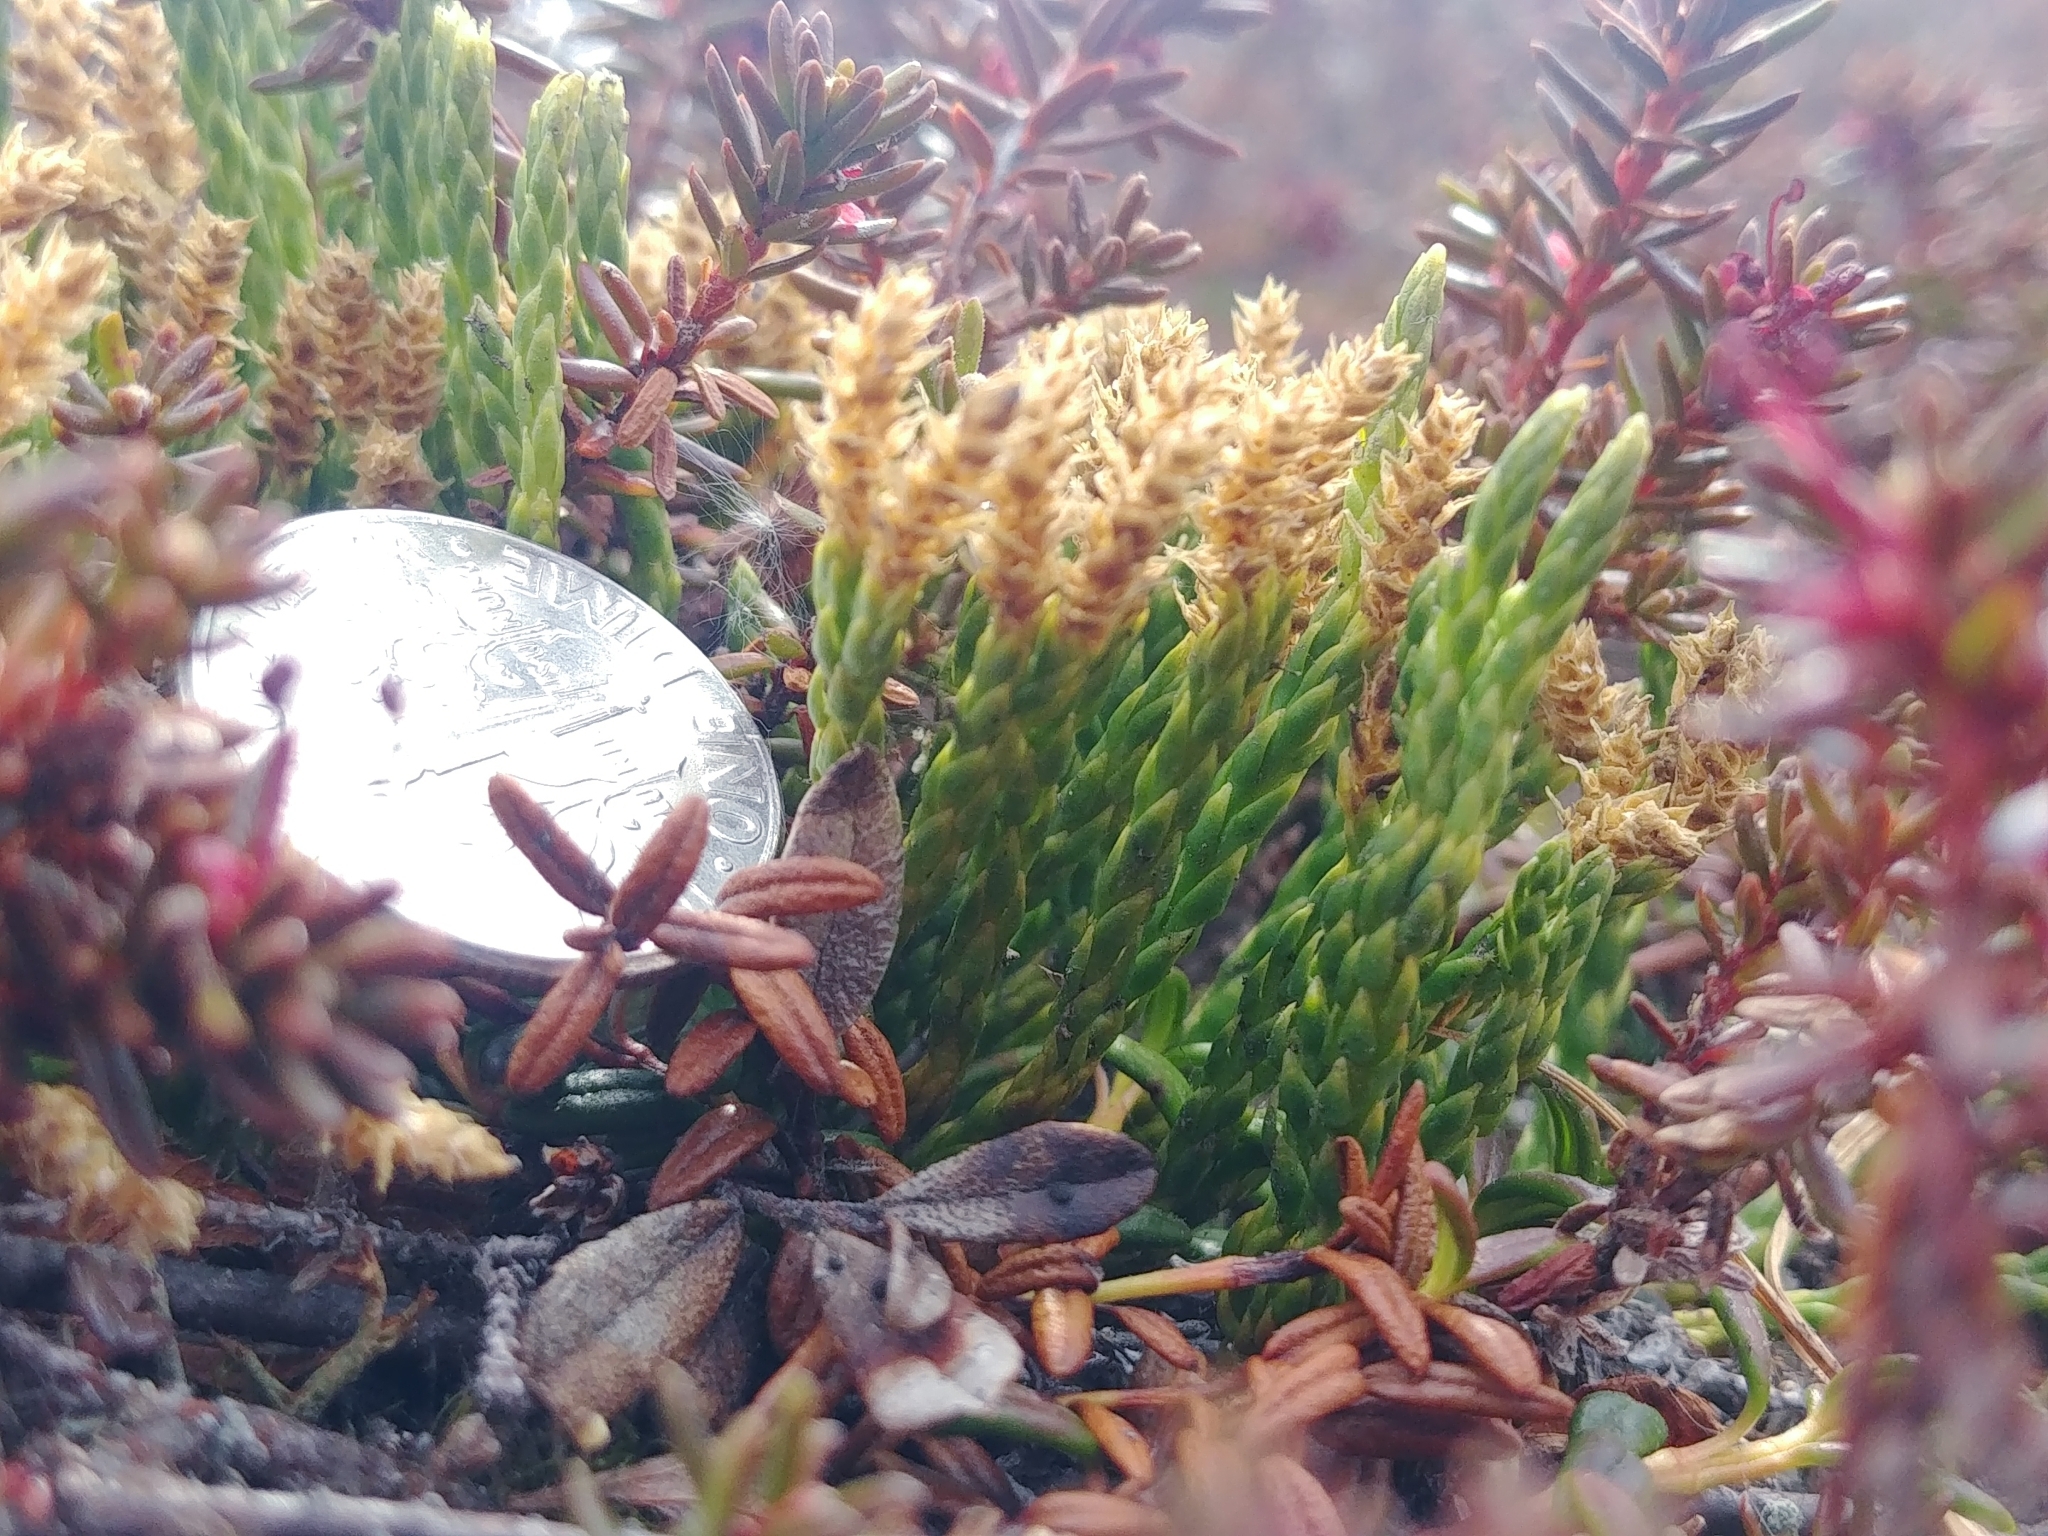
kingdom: Plantae
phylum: Tracheophyta
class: Lycopodiopsida
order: Lycopodiales
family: Lycopodiaceae
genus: Diphasiastrum
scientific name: Diphasiastrum alpinum
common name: Alpine clubmoss
